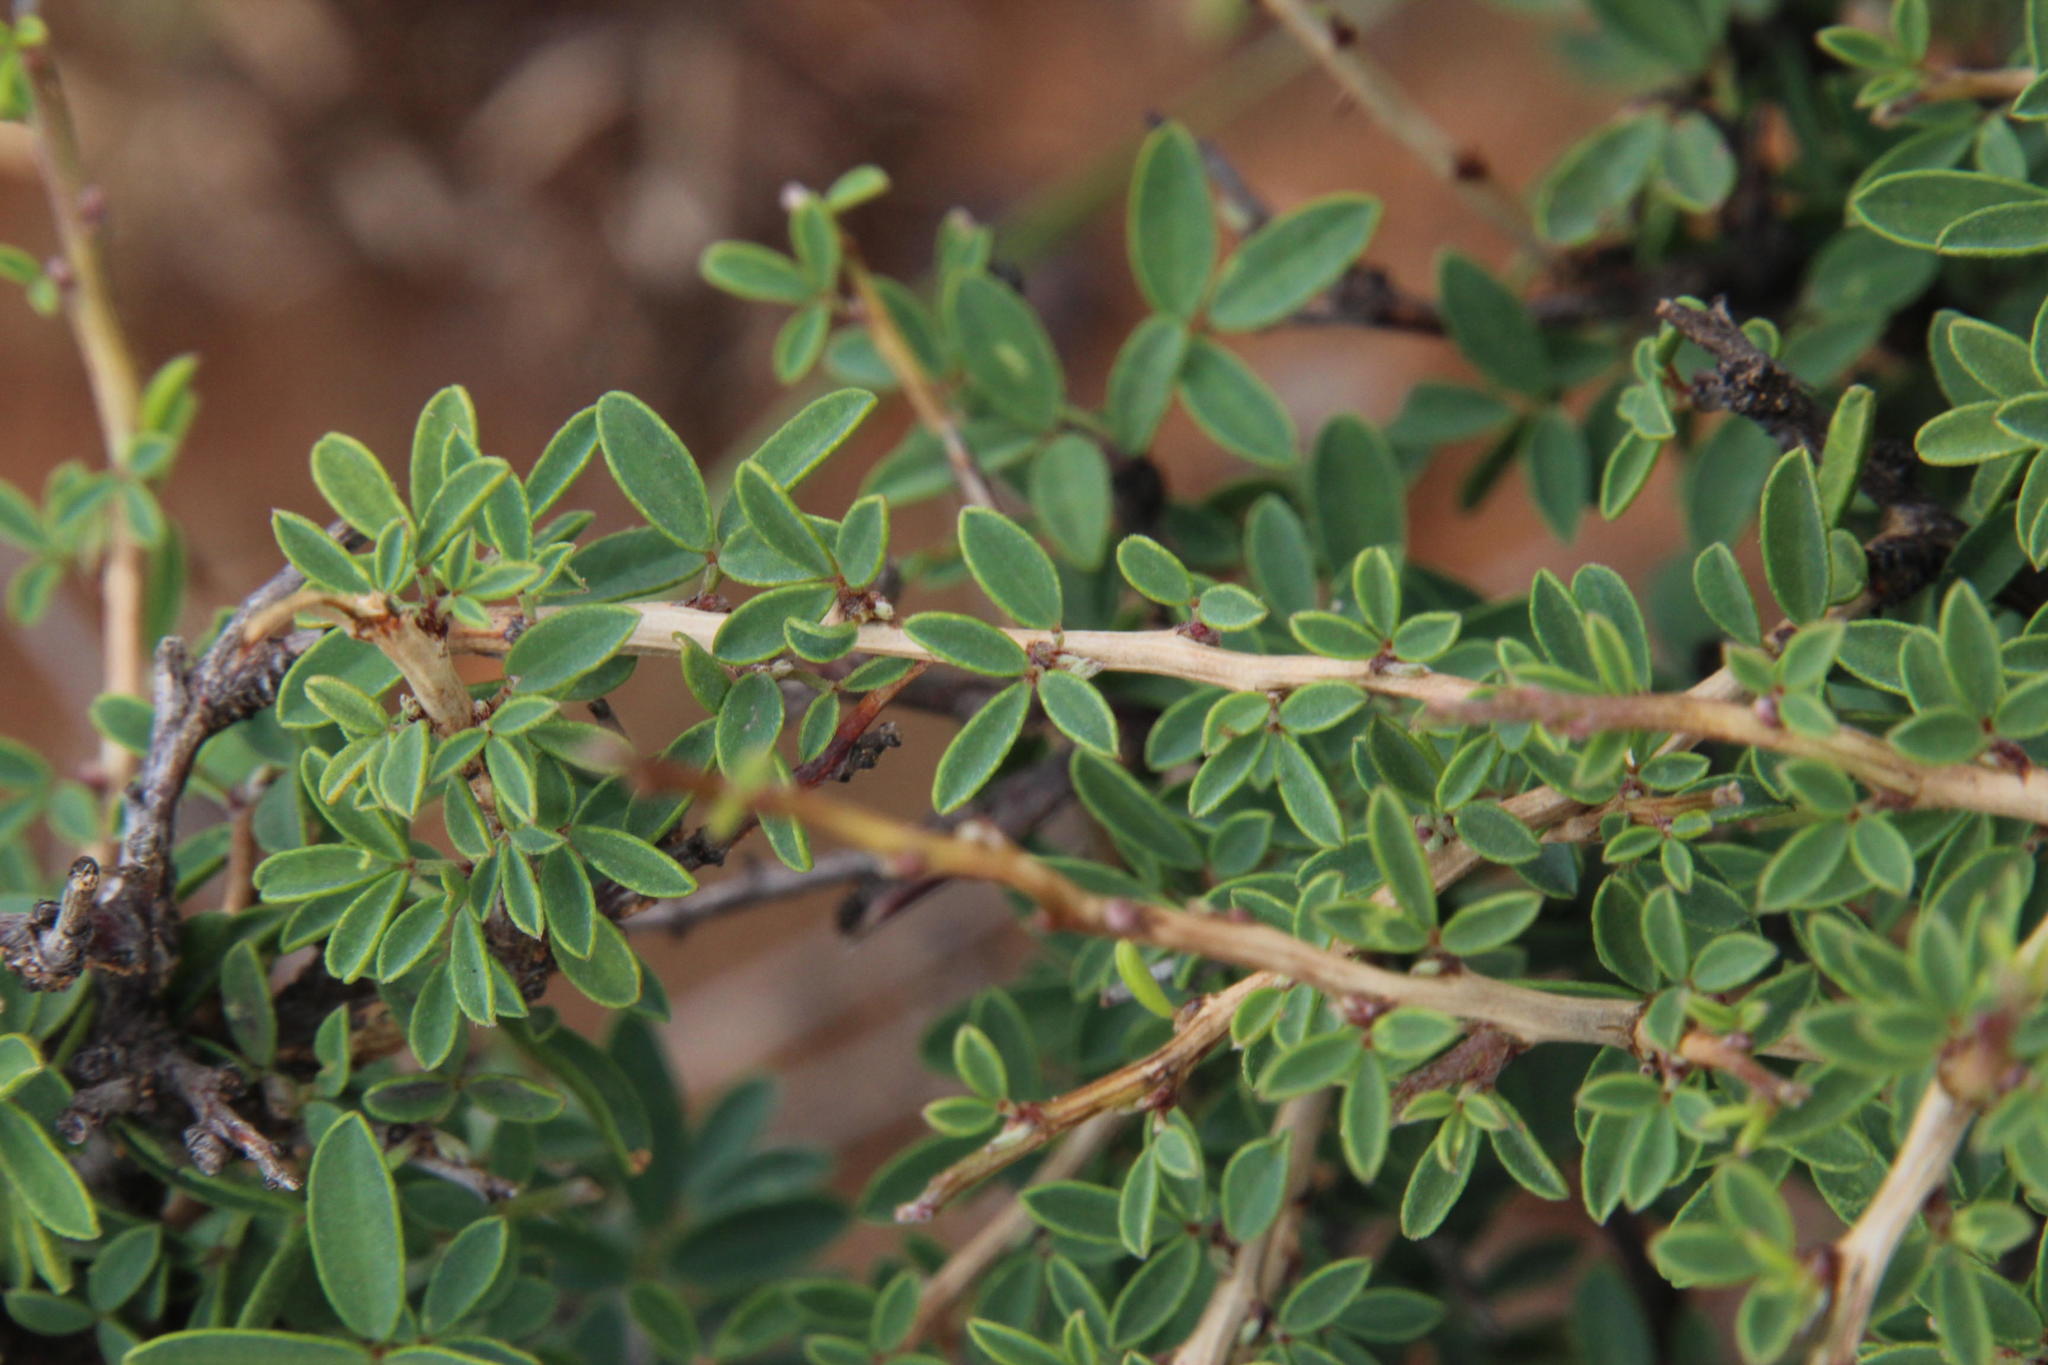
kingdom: Plantae
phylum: Tracheophyta
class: Magnoliopsida
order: Fabales
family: Fabaceae
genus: Indigofera
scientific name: Indigofera denudata
